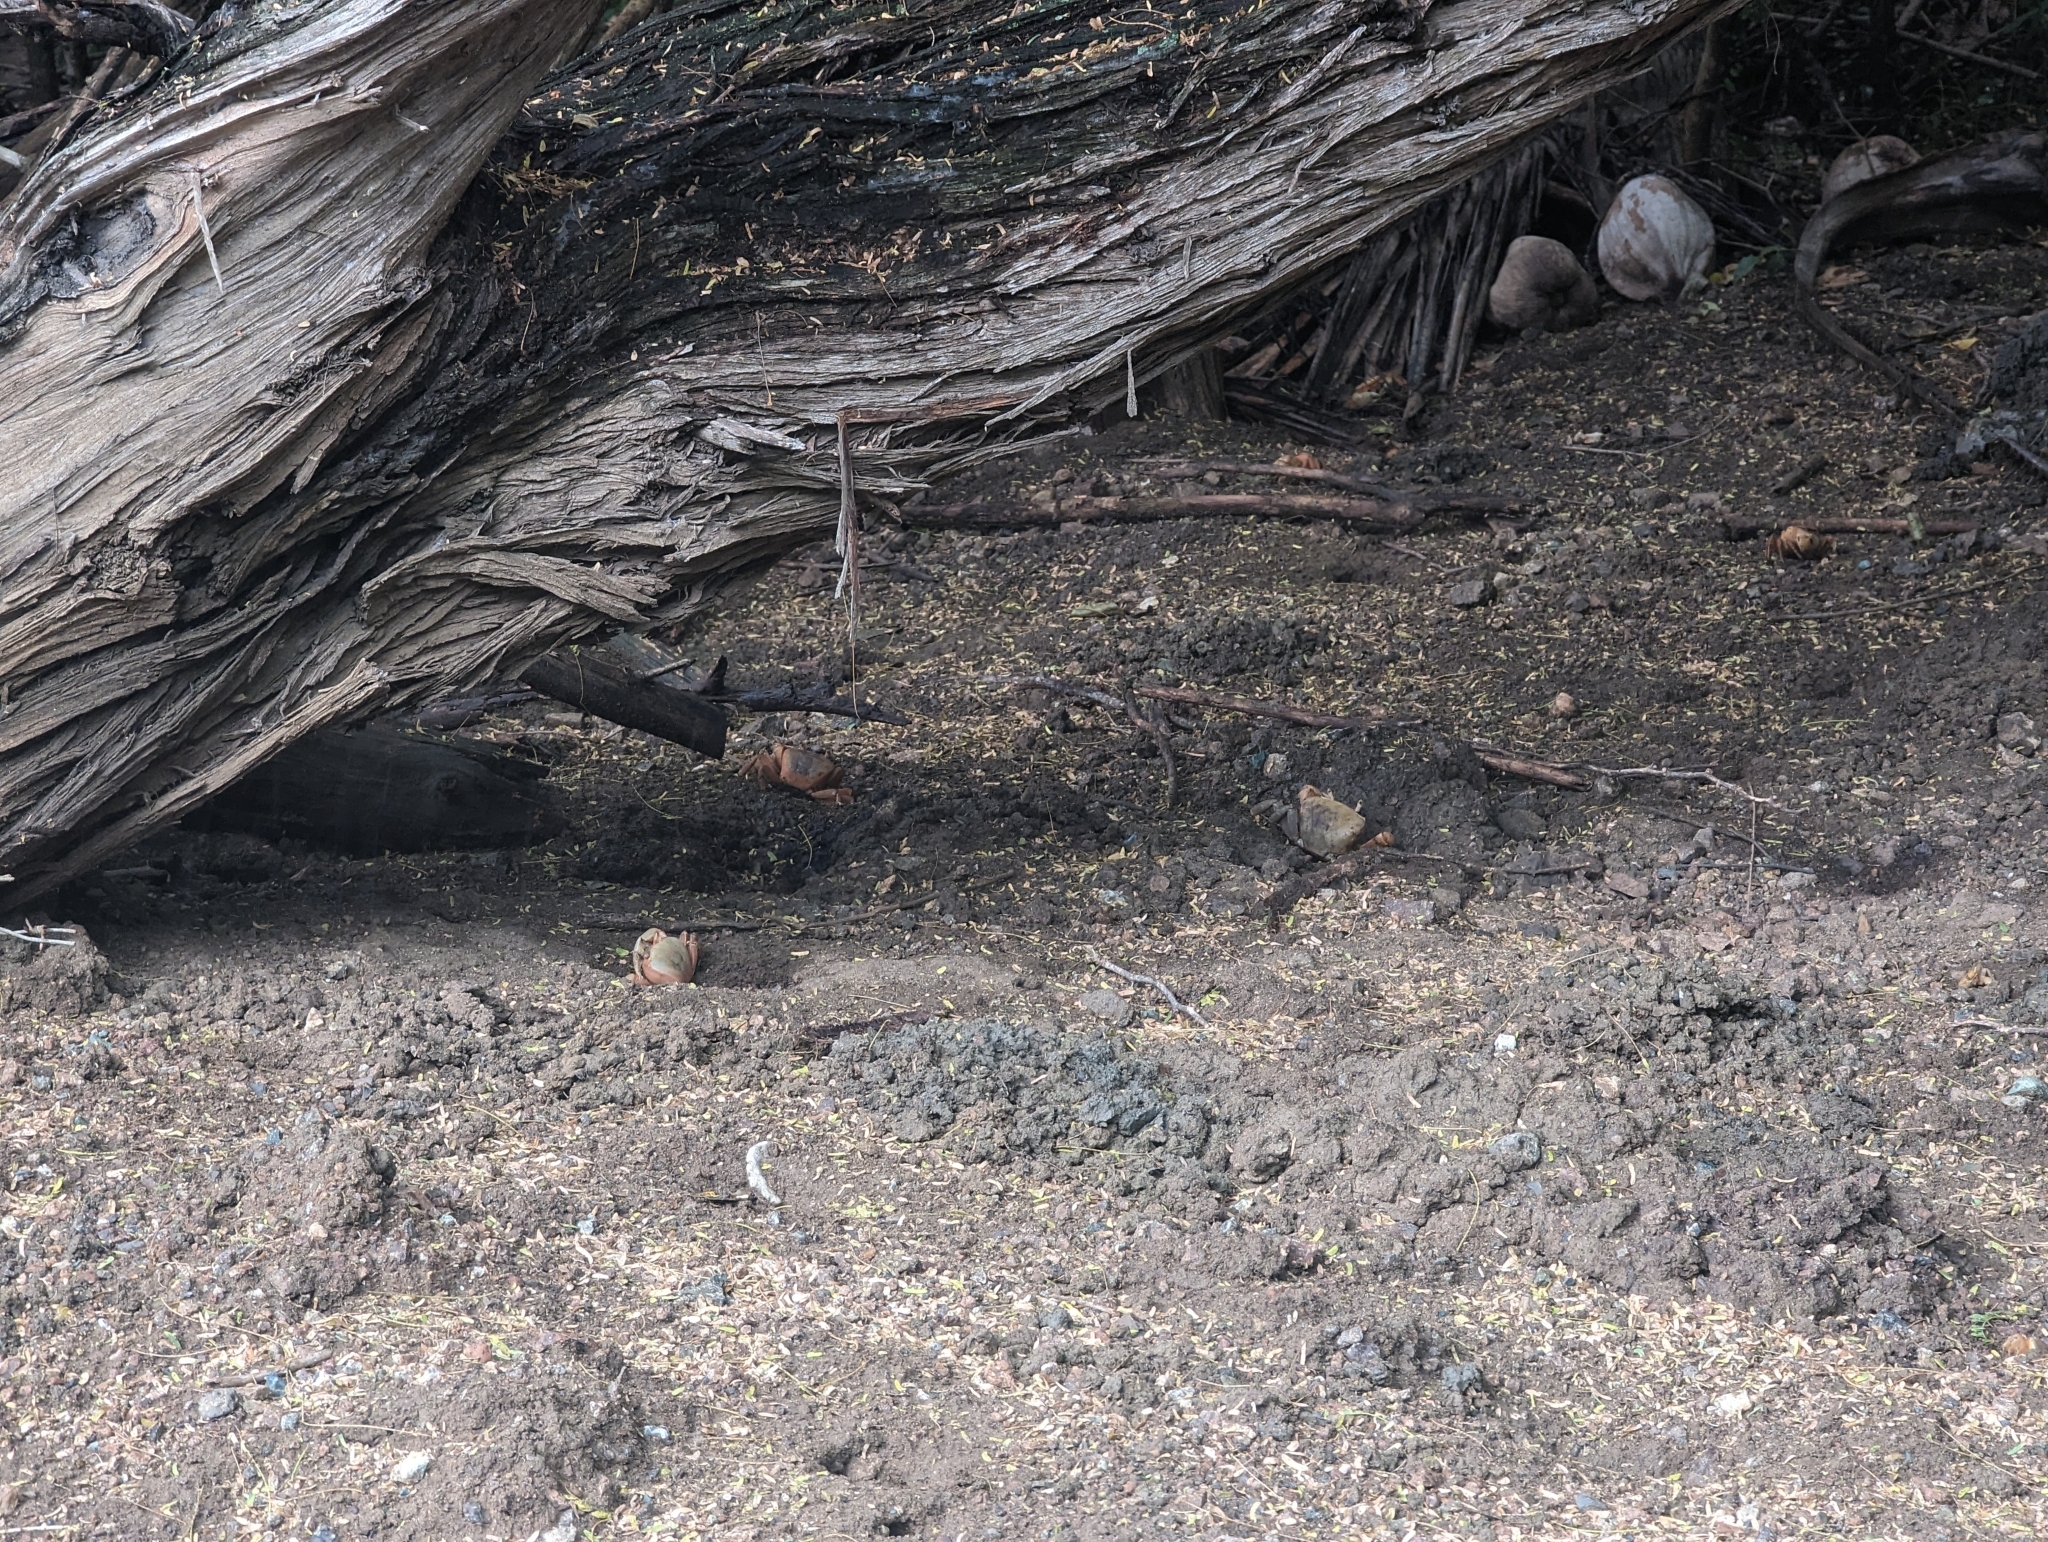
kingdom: Animalia
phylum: Arthropoda
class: Malacostraca
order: Decapoda
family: Gecarcinidae
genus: Cardisoma
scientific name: Cardisoma guanhumi
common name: Great land crab
